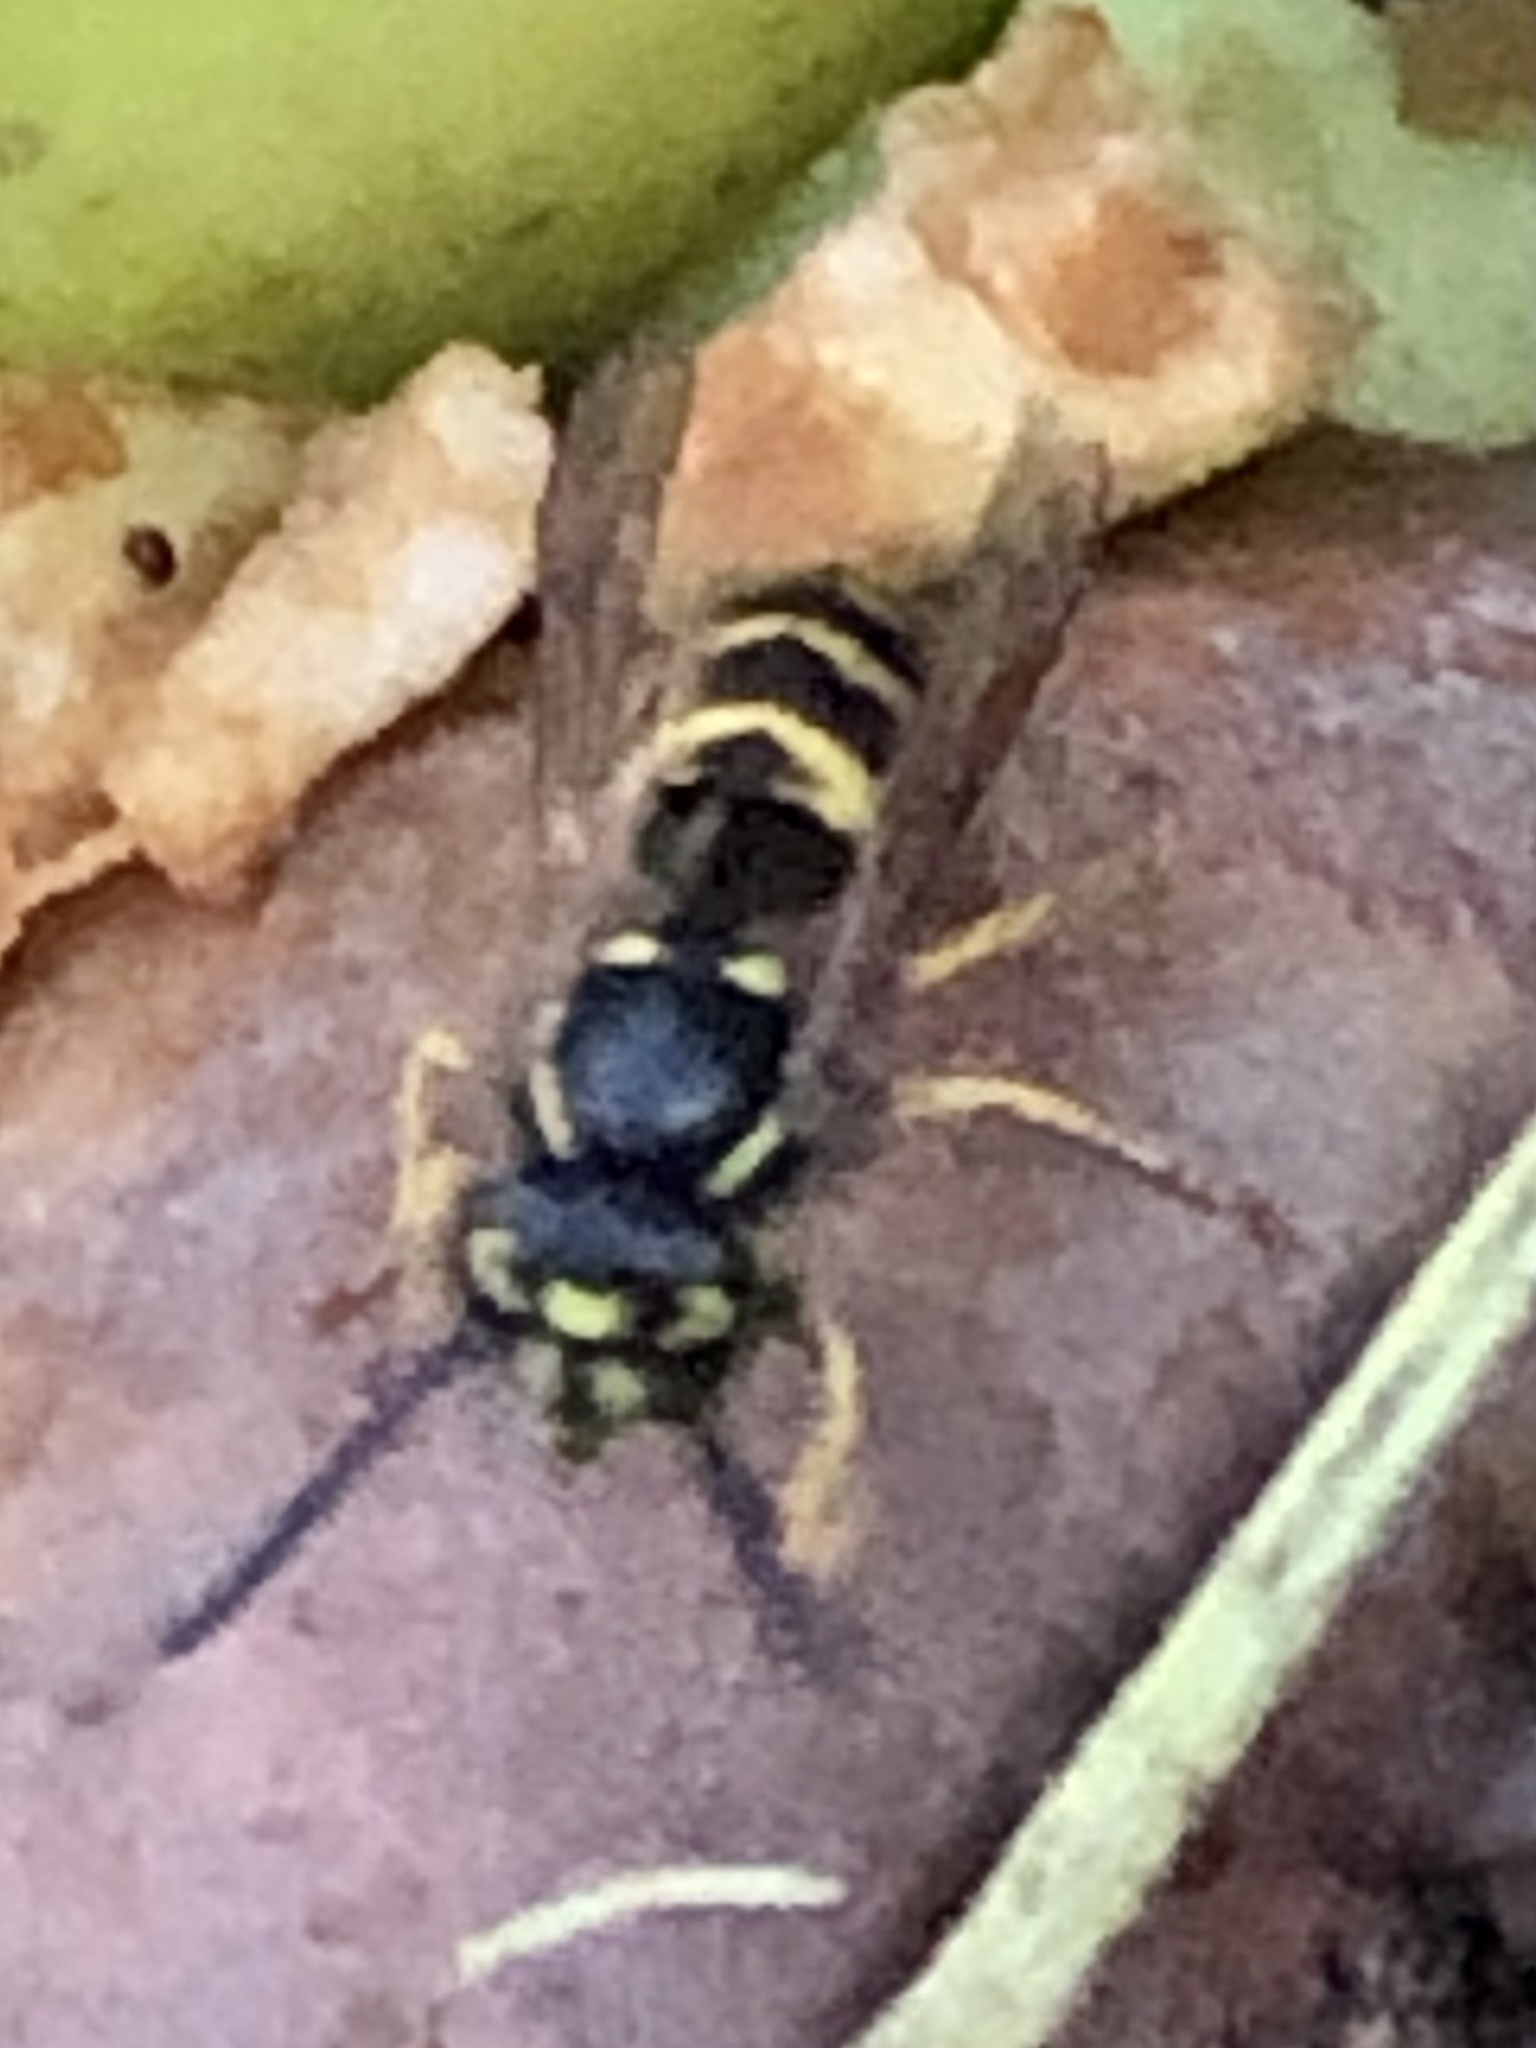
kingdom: Animalia
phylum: Arthropoda
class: Insecta
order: Hymenoptera
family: Vespidae
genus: Vespula
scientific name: Vespula alascensis
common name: Alaska yellowjacket
